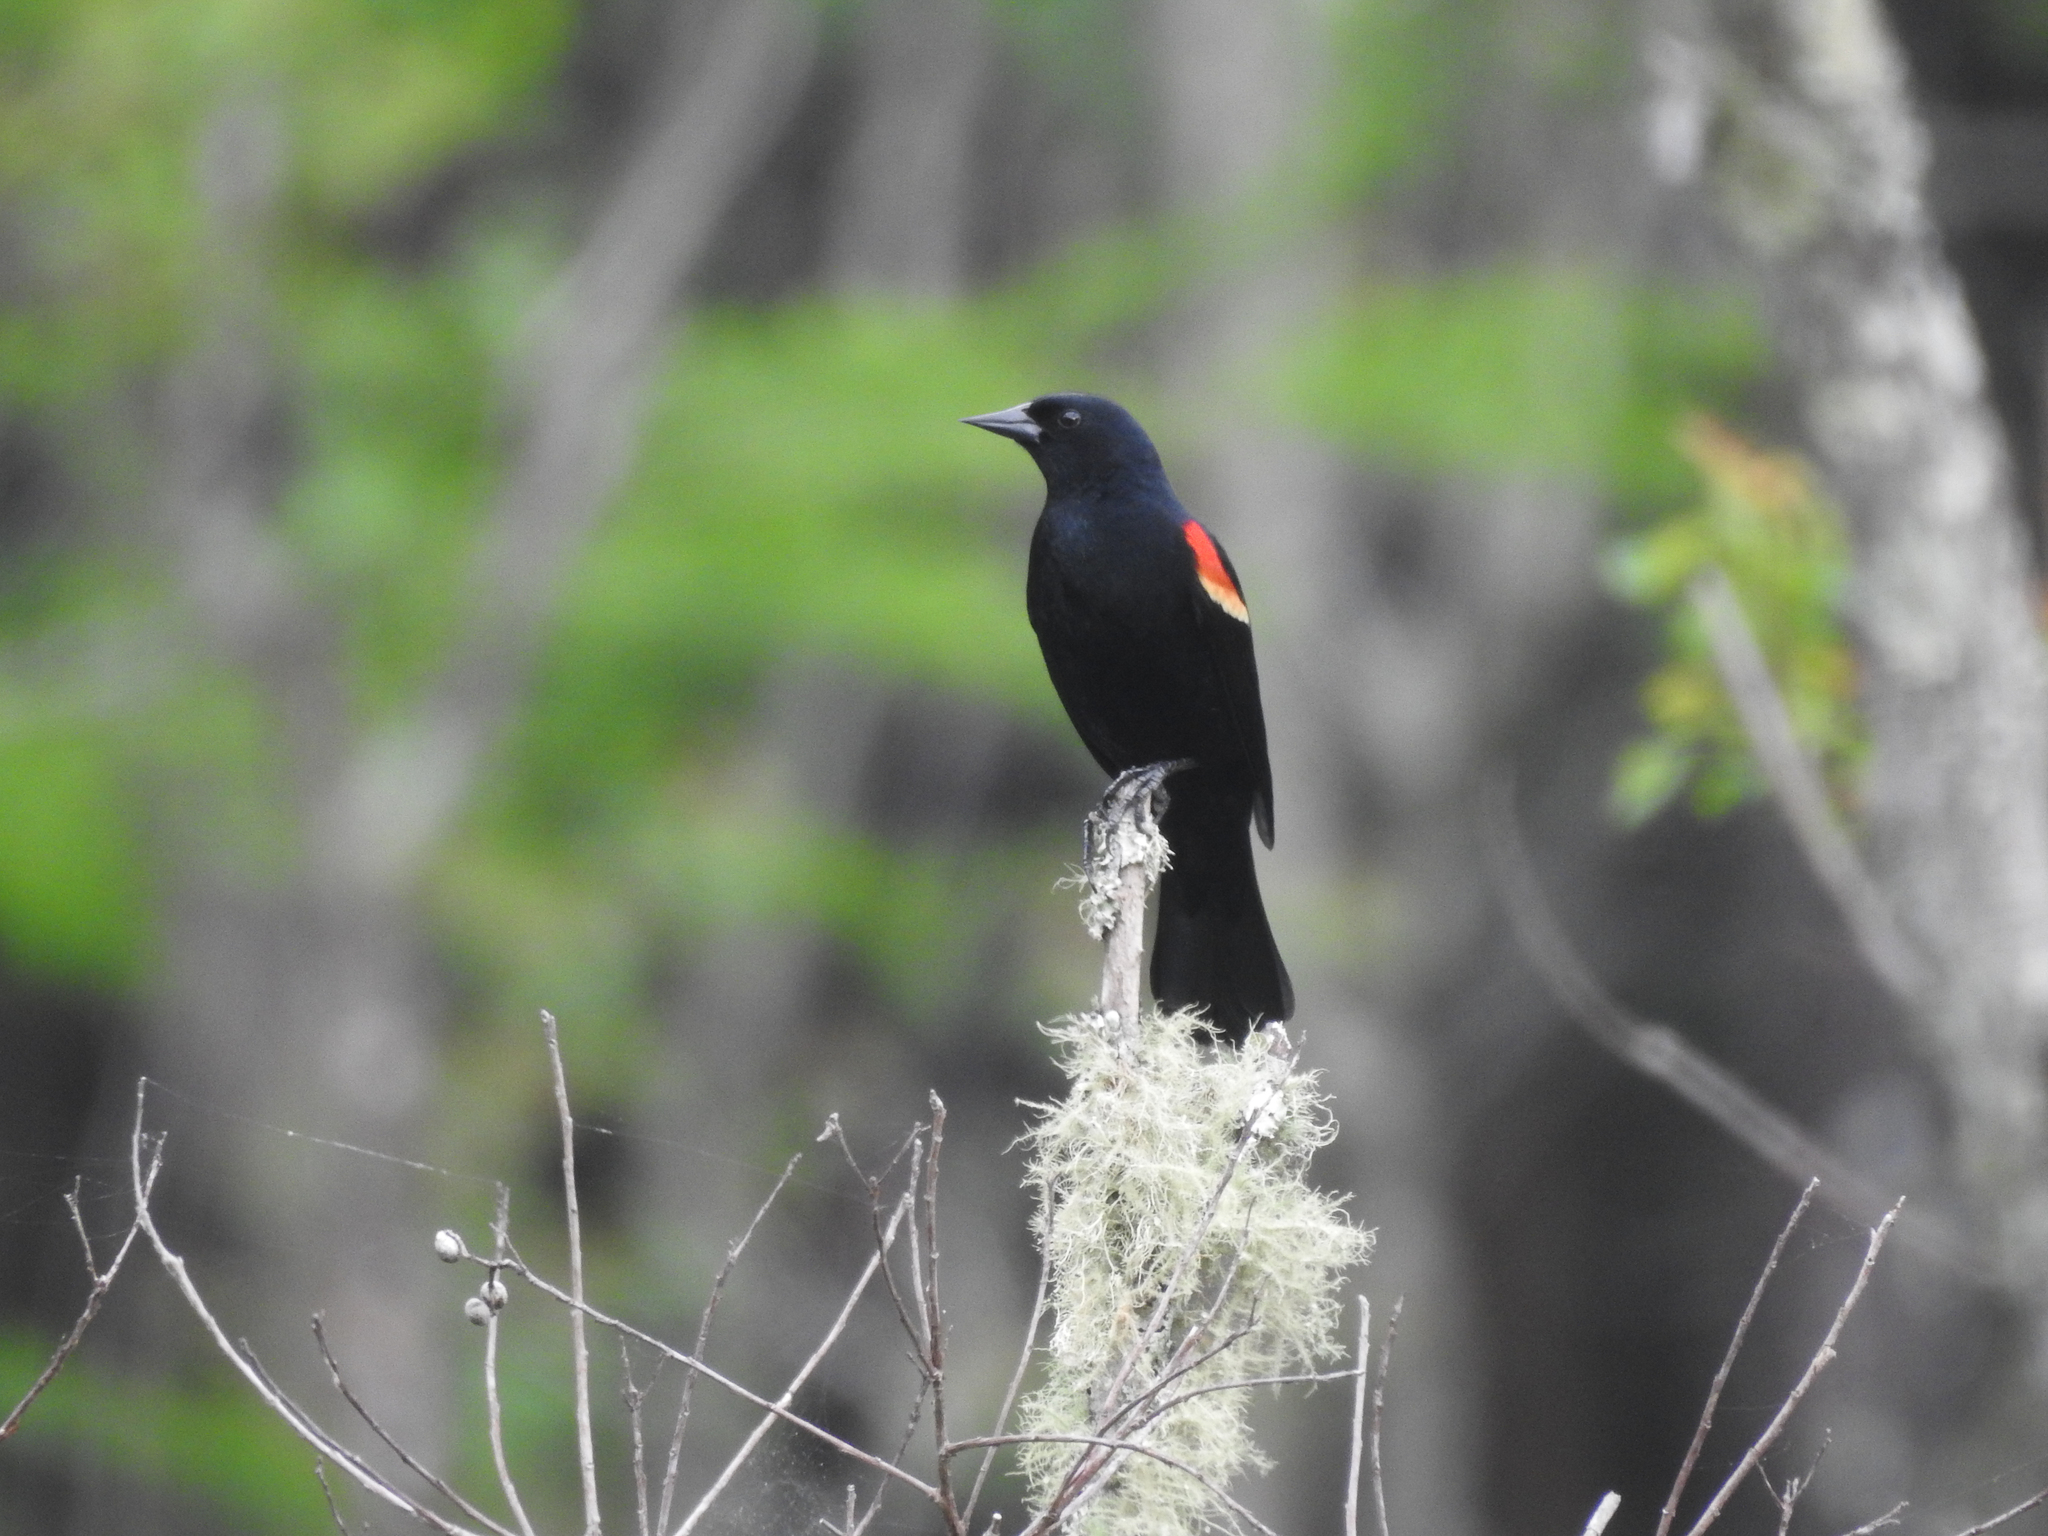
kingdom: Animalia
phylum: Chordata
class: Aves
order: Passeriformes
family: Icteridae
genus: Agelaius
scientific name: Agelaius phoeniceus
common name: Red-winged blackbird
